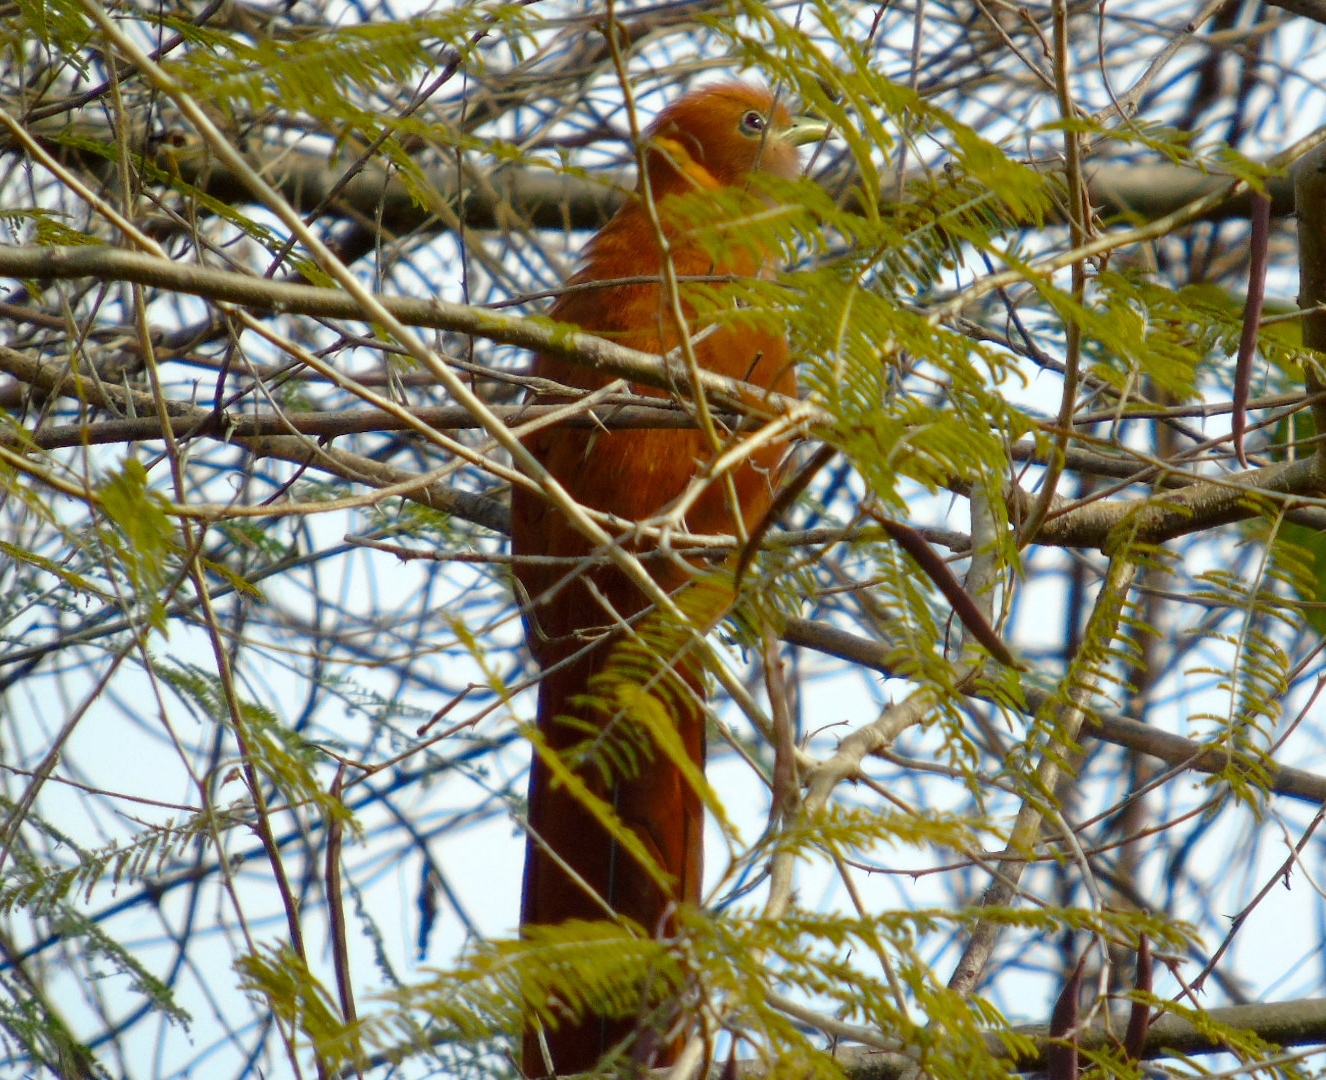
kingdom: Animalia
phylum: Chordata
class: Aves
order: Cuculiformes
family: Cuculidae
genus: Piaya
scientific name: Piaya cayana
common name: Squirrel cuckoo
